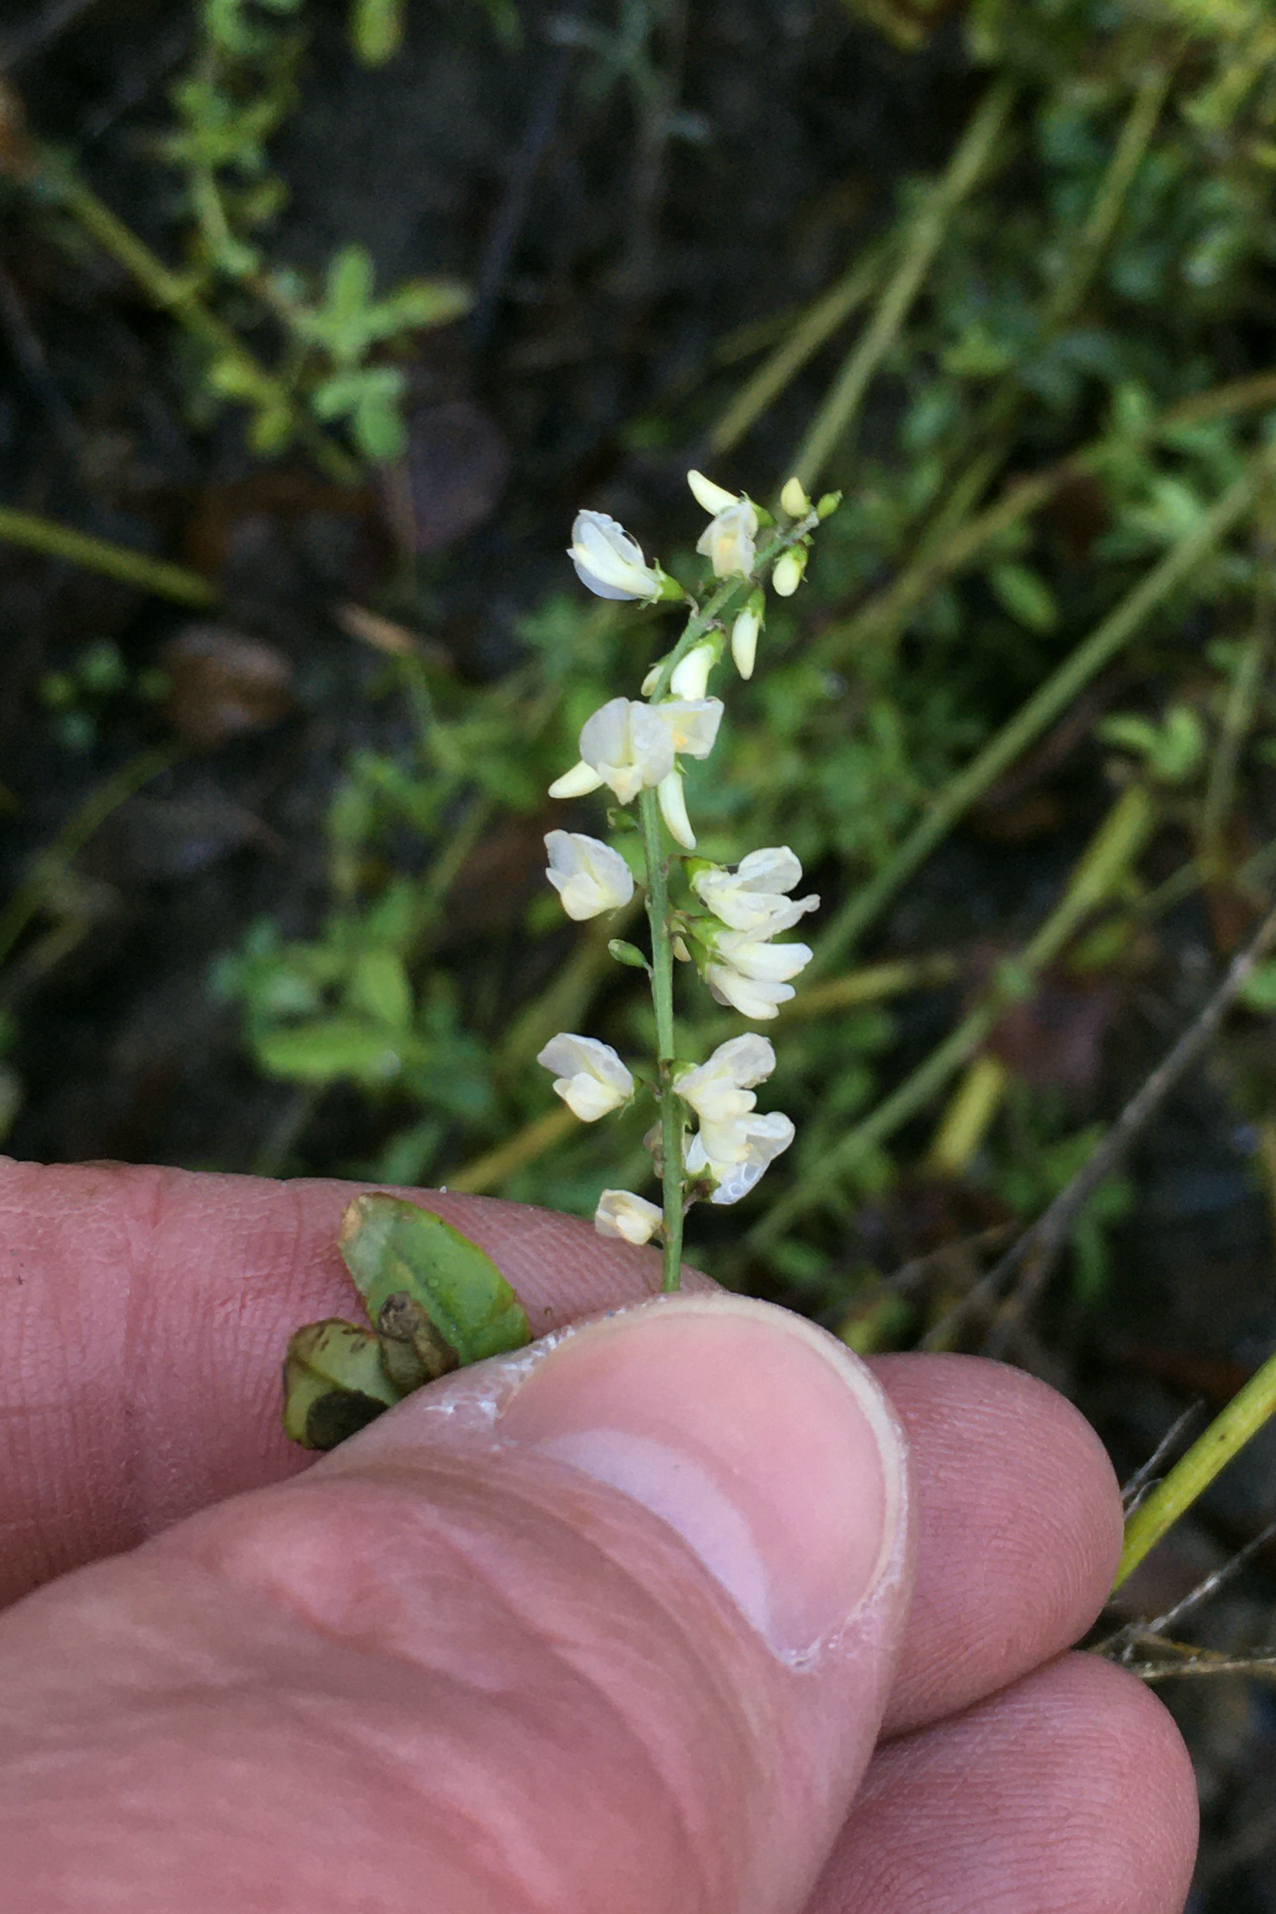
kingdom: Plantae
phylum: Tracheophyta
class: Magnoliopsida
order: Fabales
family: Fabaceae
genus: Melilotus
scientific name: Melilotus albus
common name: White melilot
